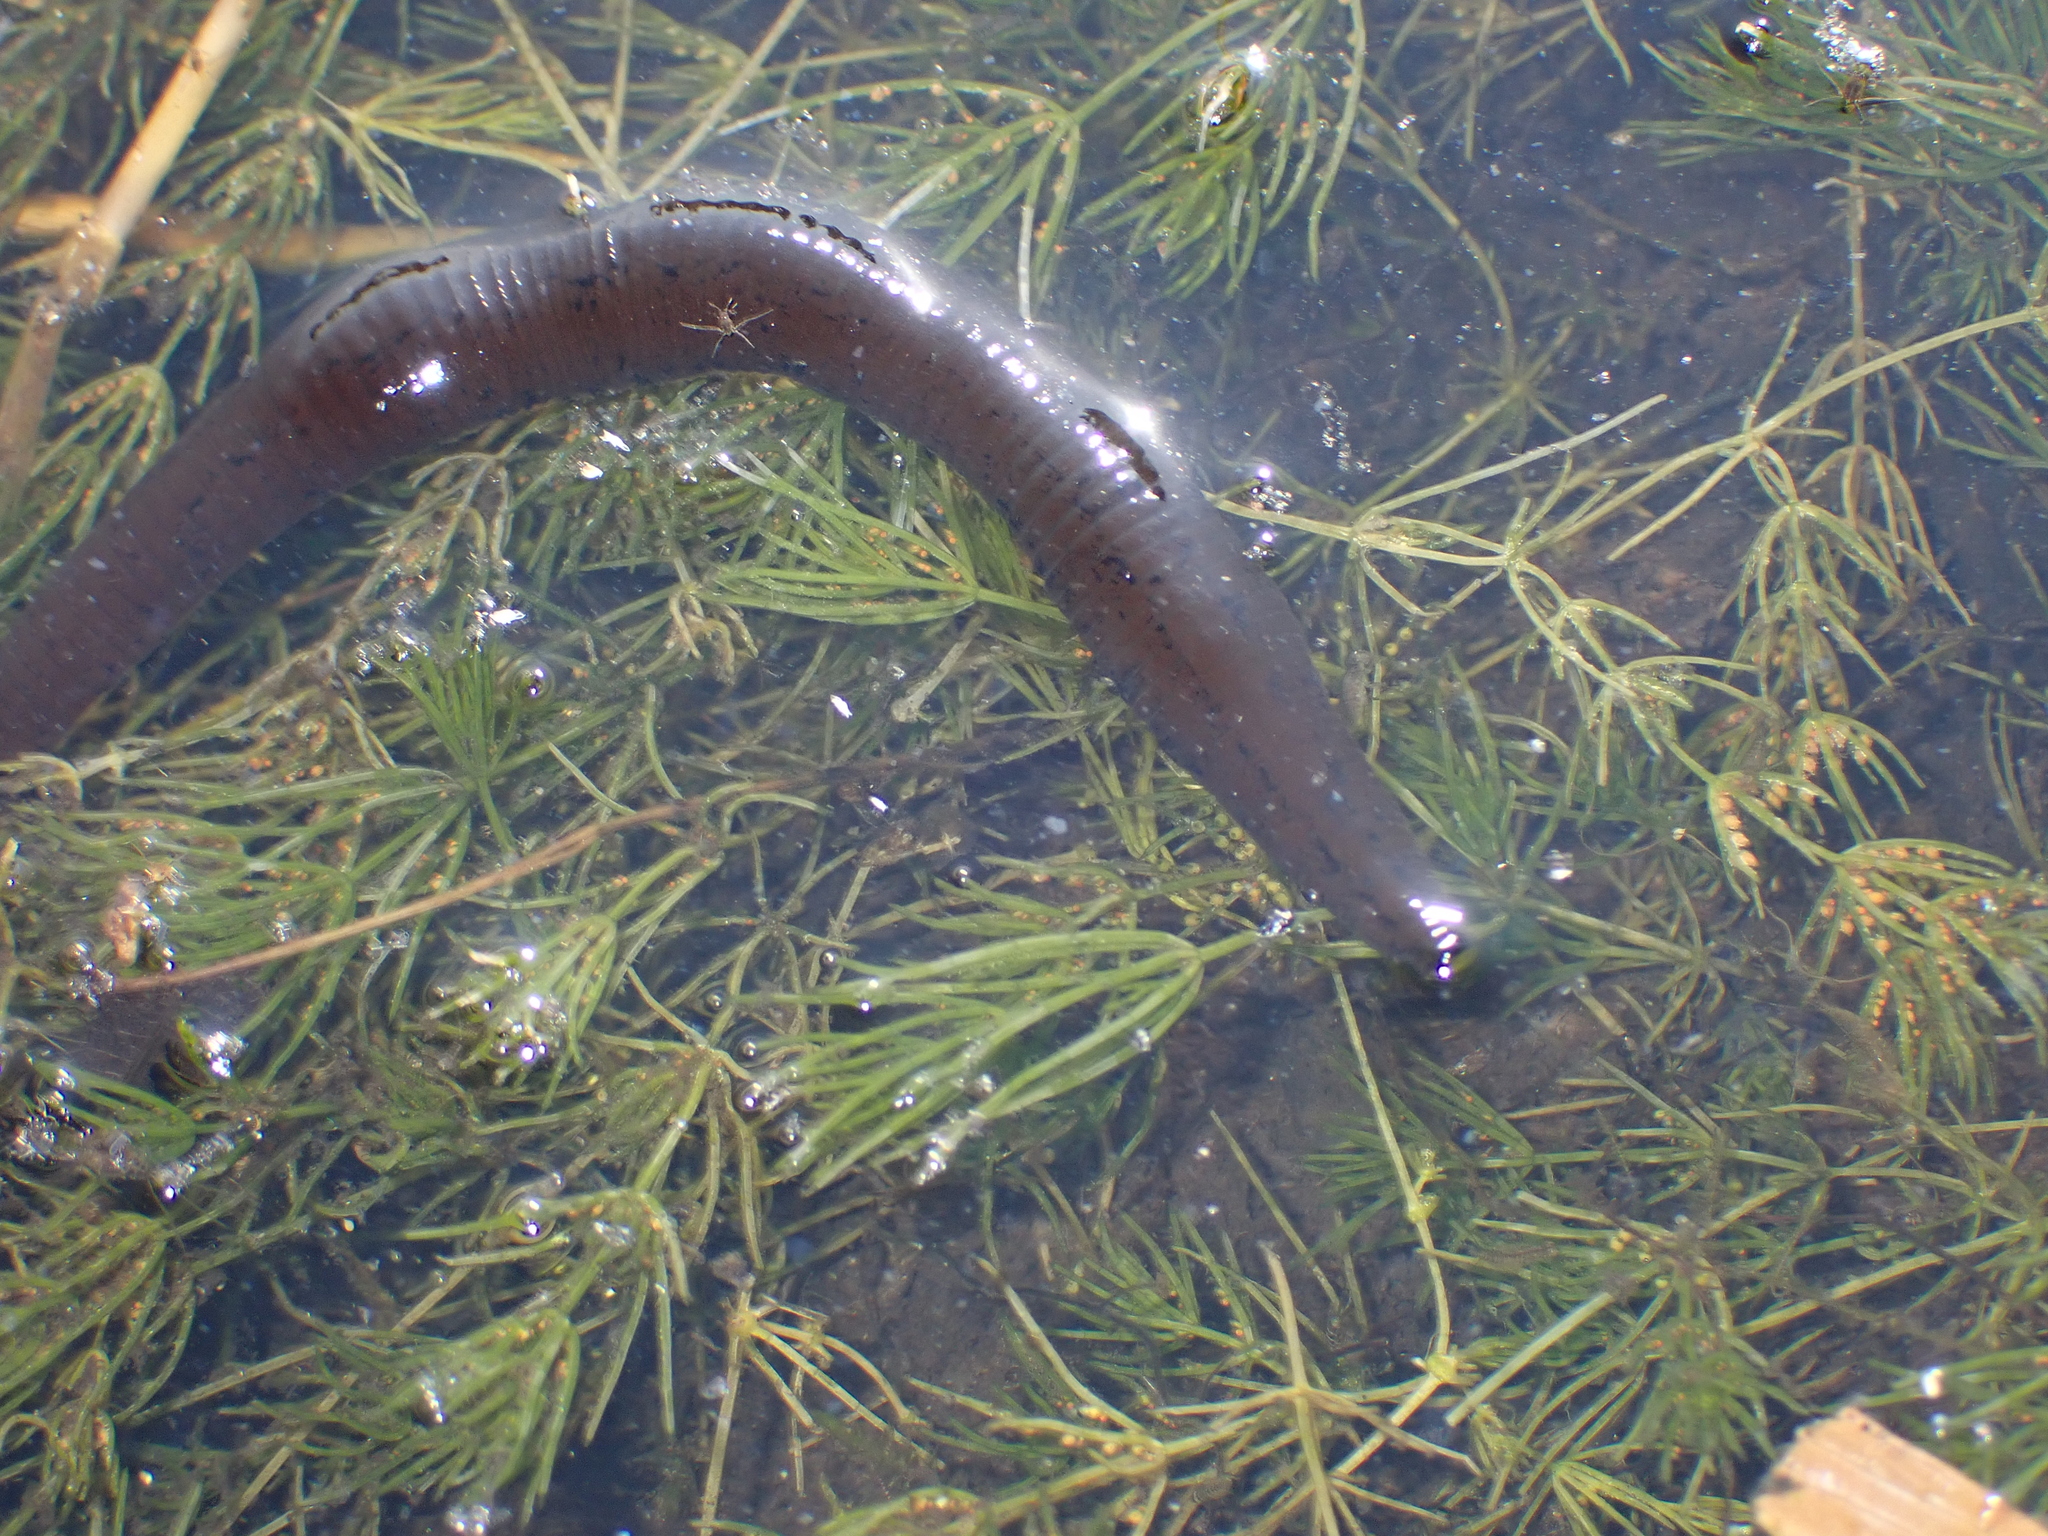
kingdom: Animalia
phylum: Annelida
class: Clitellata
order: Arhynchobdellida
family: Haemopidae
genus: Haemopis
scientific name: Haemopis sanguisuga
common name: Horse leech
